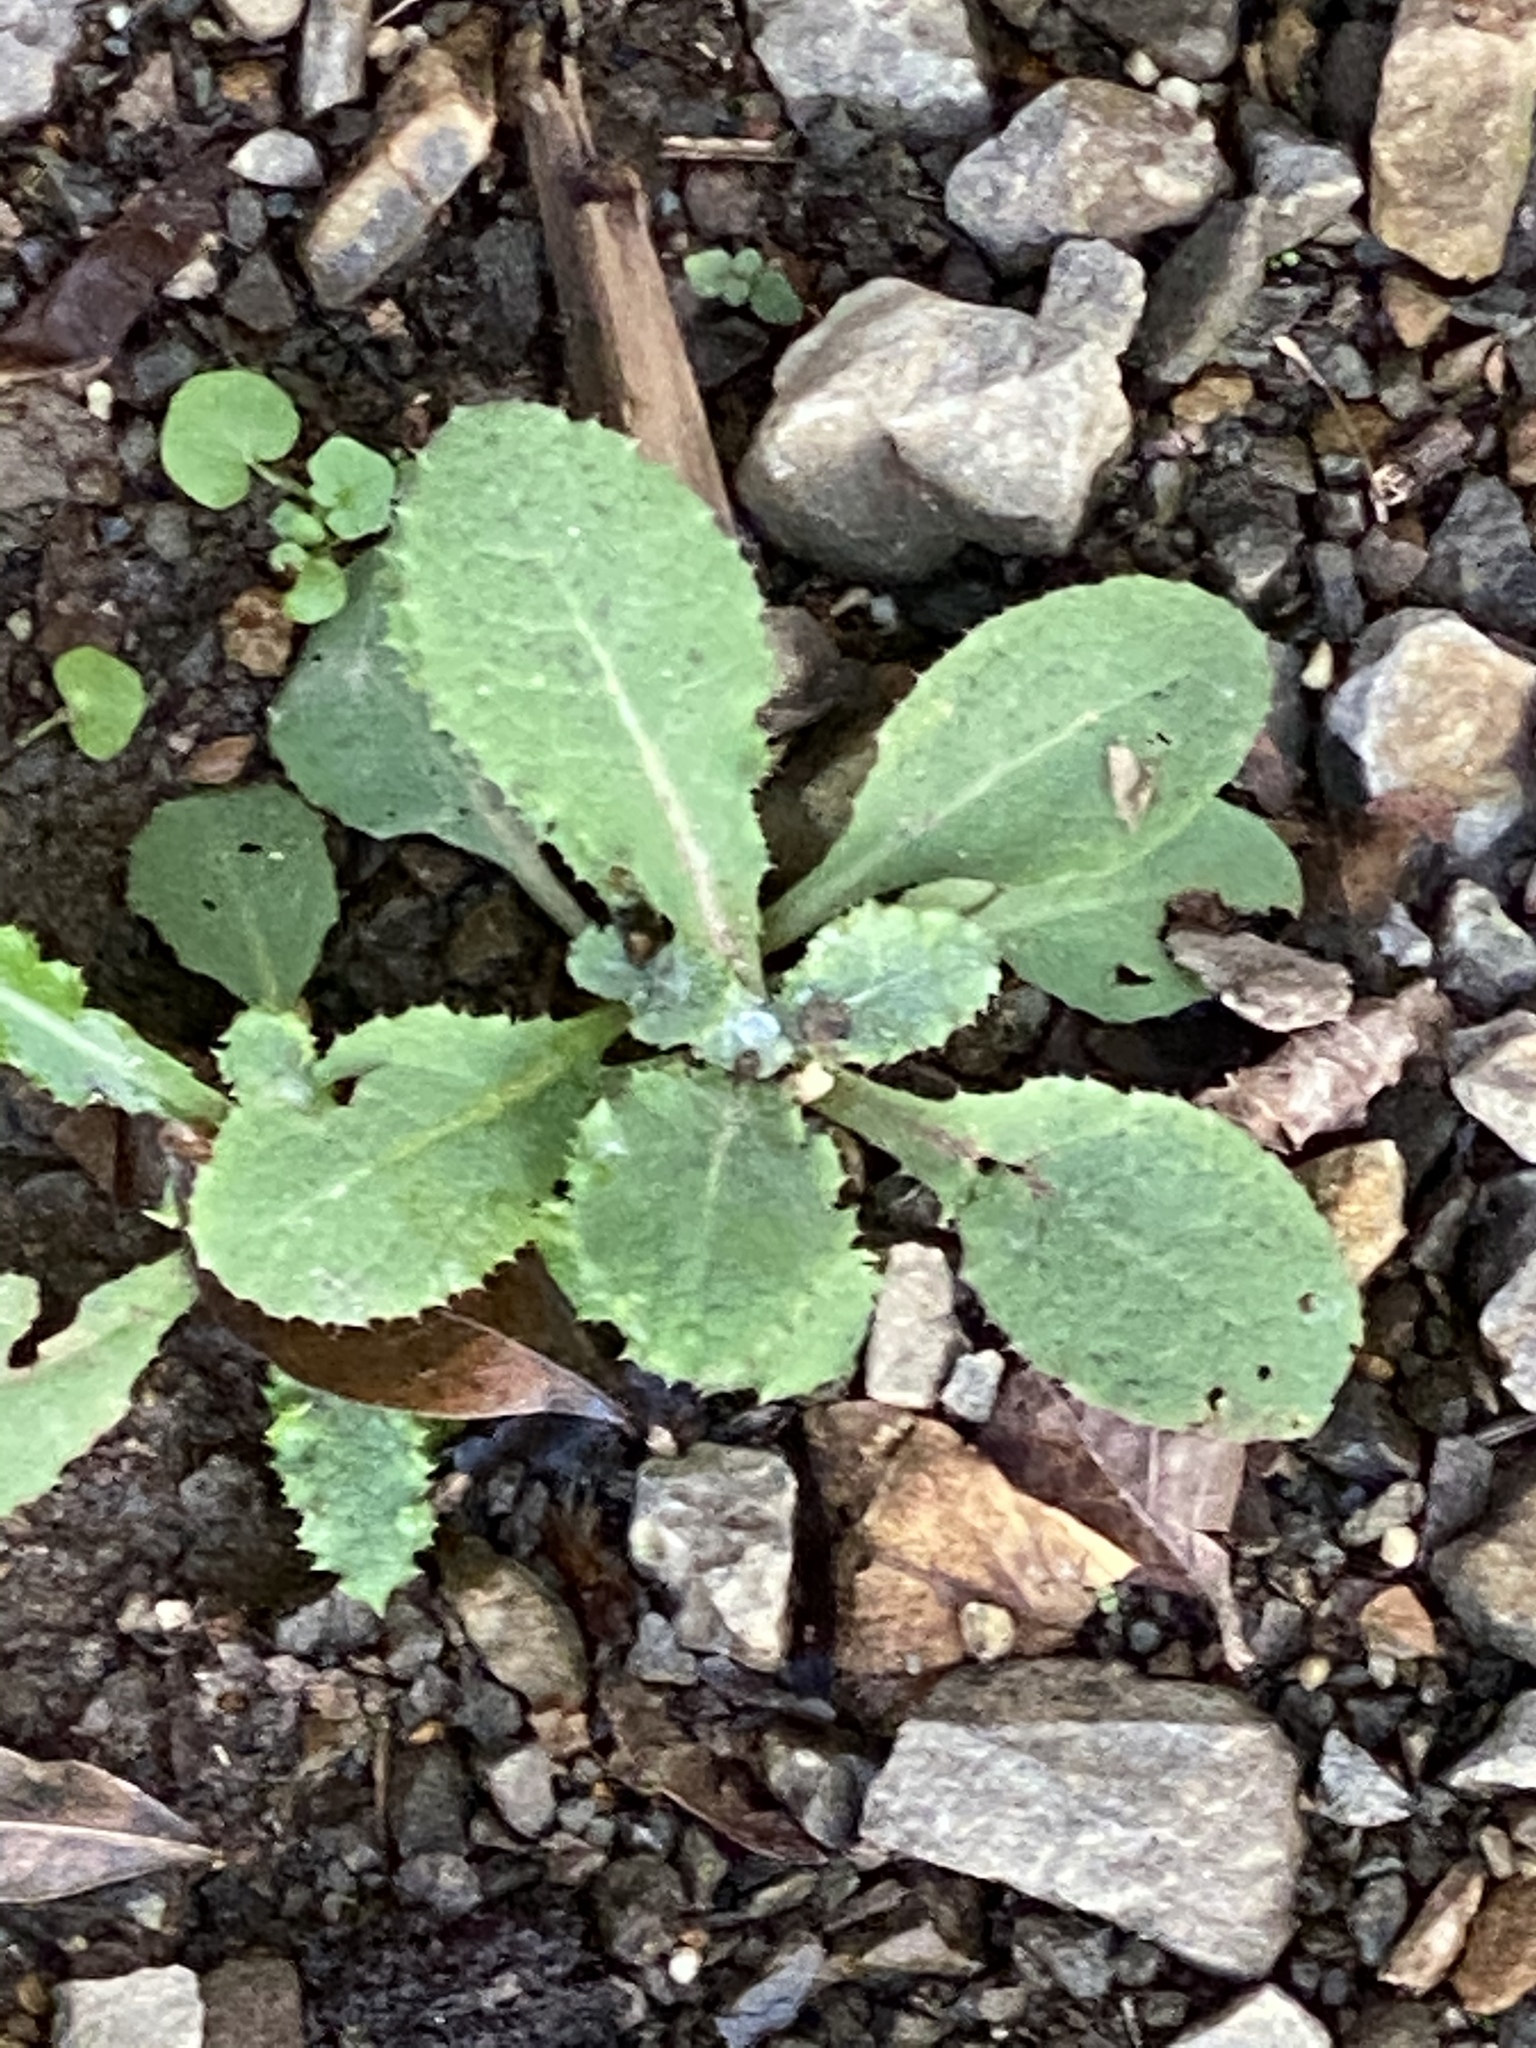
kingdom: Plantae
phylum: Tracheophyta
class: Magnoliopsida
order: Asterales
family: Asteraceae
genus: Sonchus
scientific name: Sonchus oleraceus
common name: Common sowthistle
